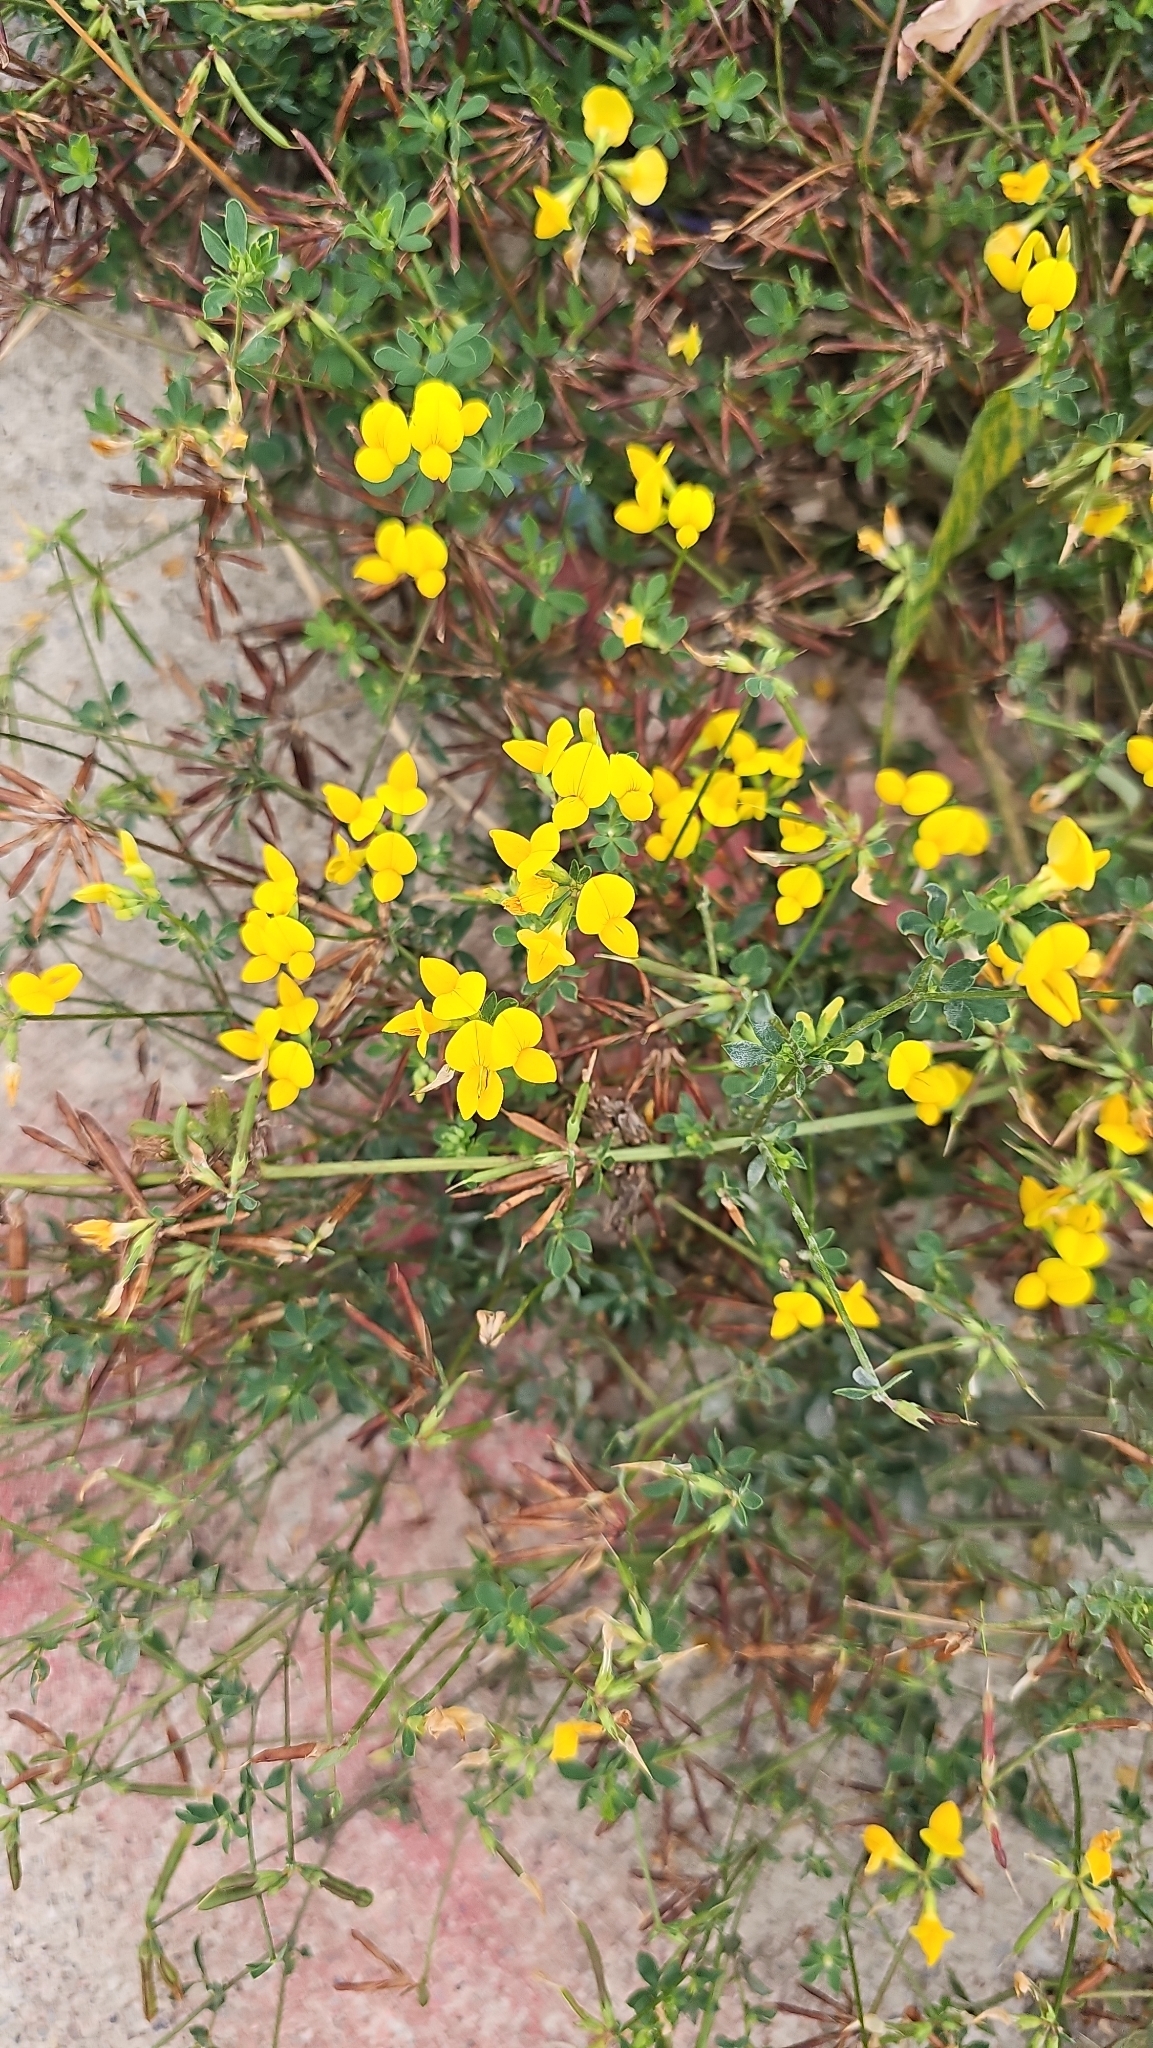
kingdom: Plantae
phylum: Tracheophyta
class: Magnoliopsida
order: Fabales
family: Fabaceae
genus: Lotus
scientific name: Lotus corniculatus
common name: Common bird's-foot-trefoil
